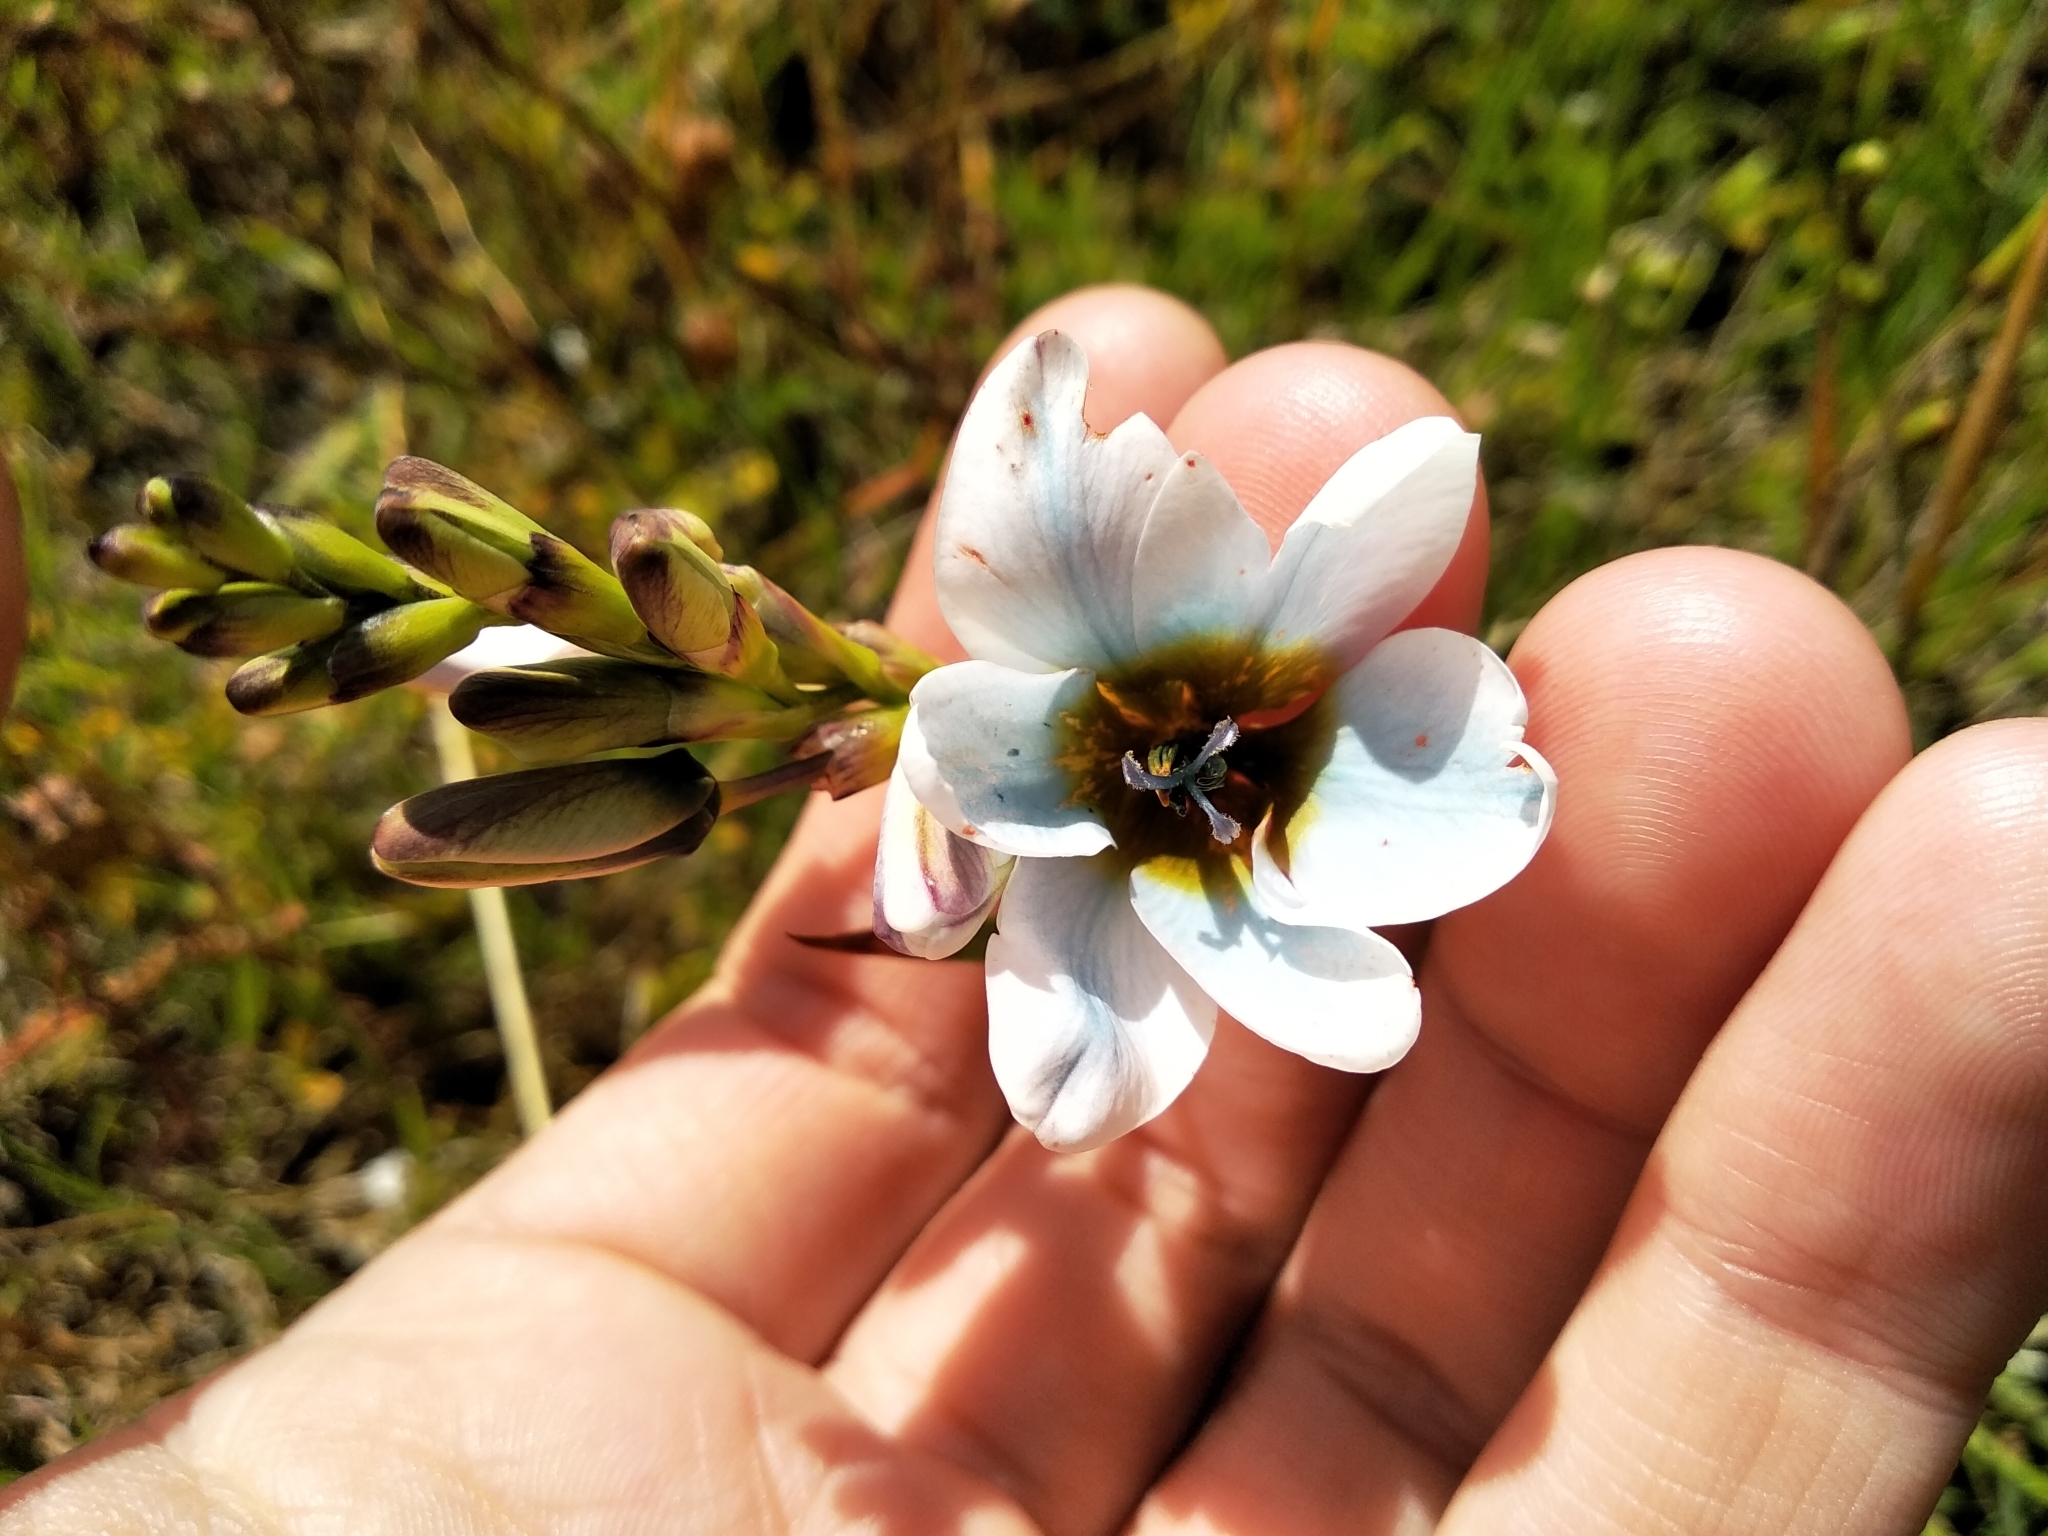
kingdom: Plantae
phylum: Tracheophyta
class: Liliopsida
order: Asparagales
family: Iridaceae
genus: Ixia
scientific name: Ixia monadelpha
